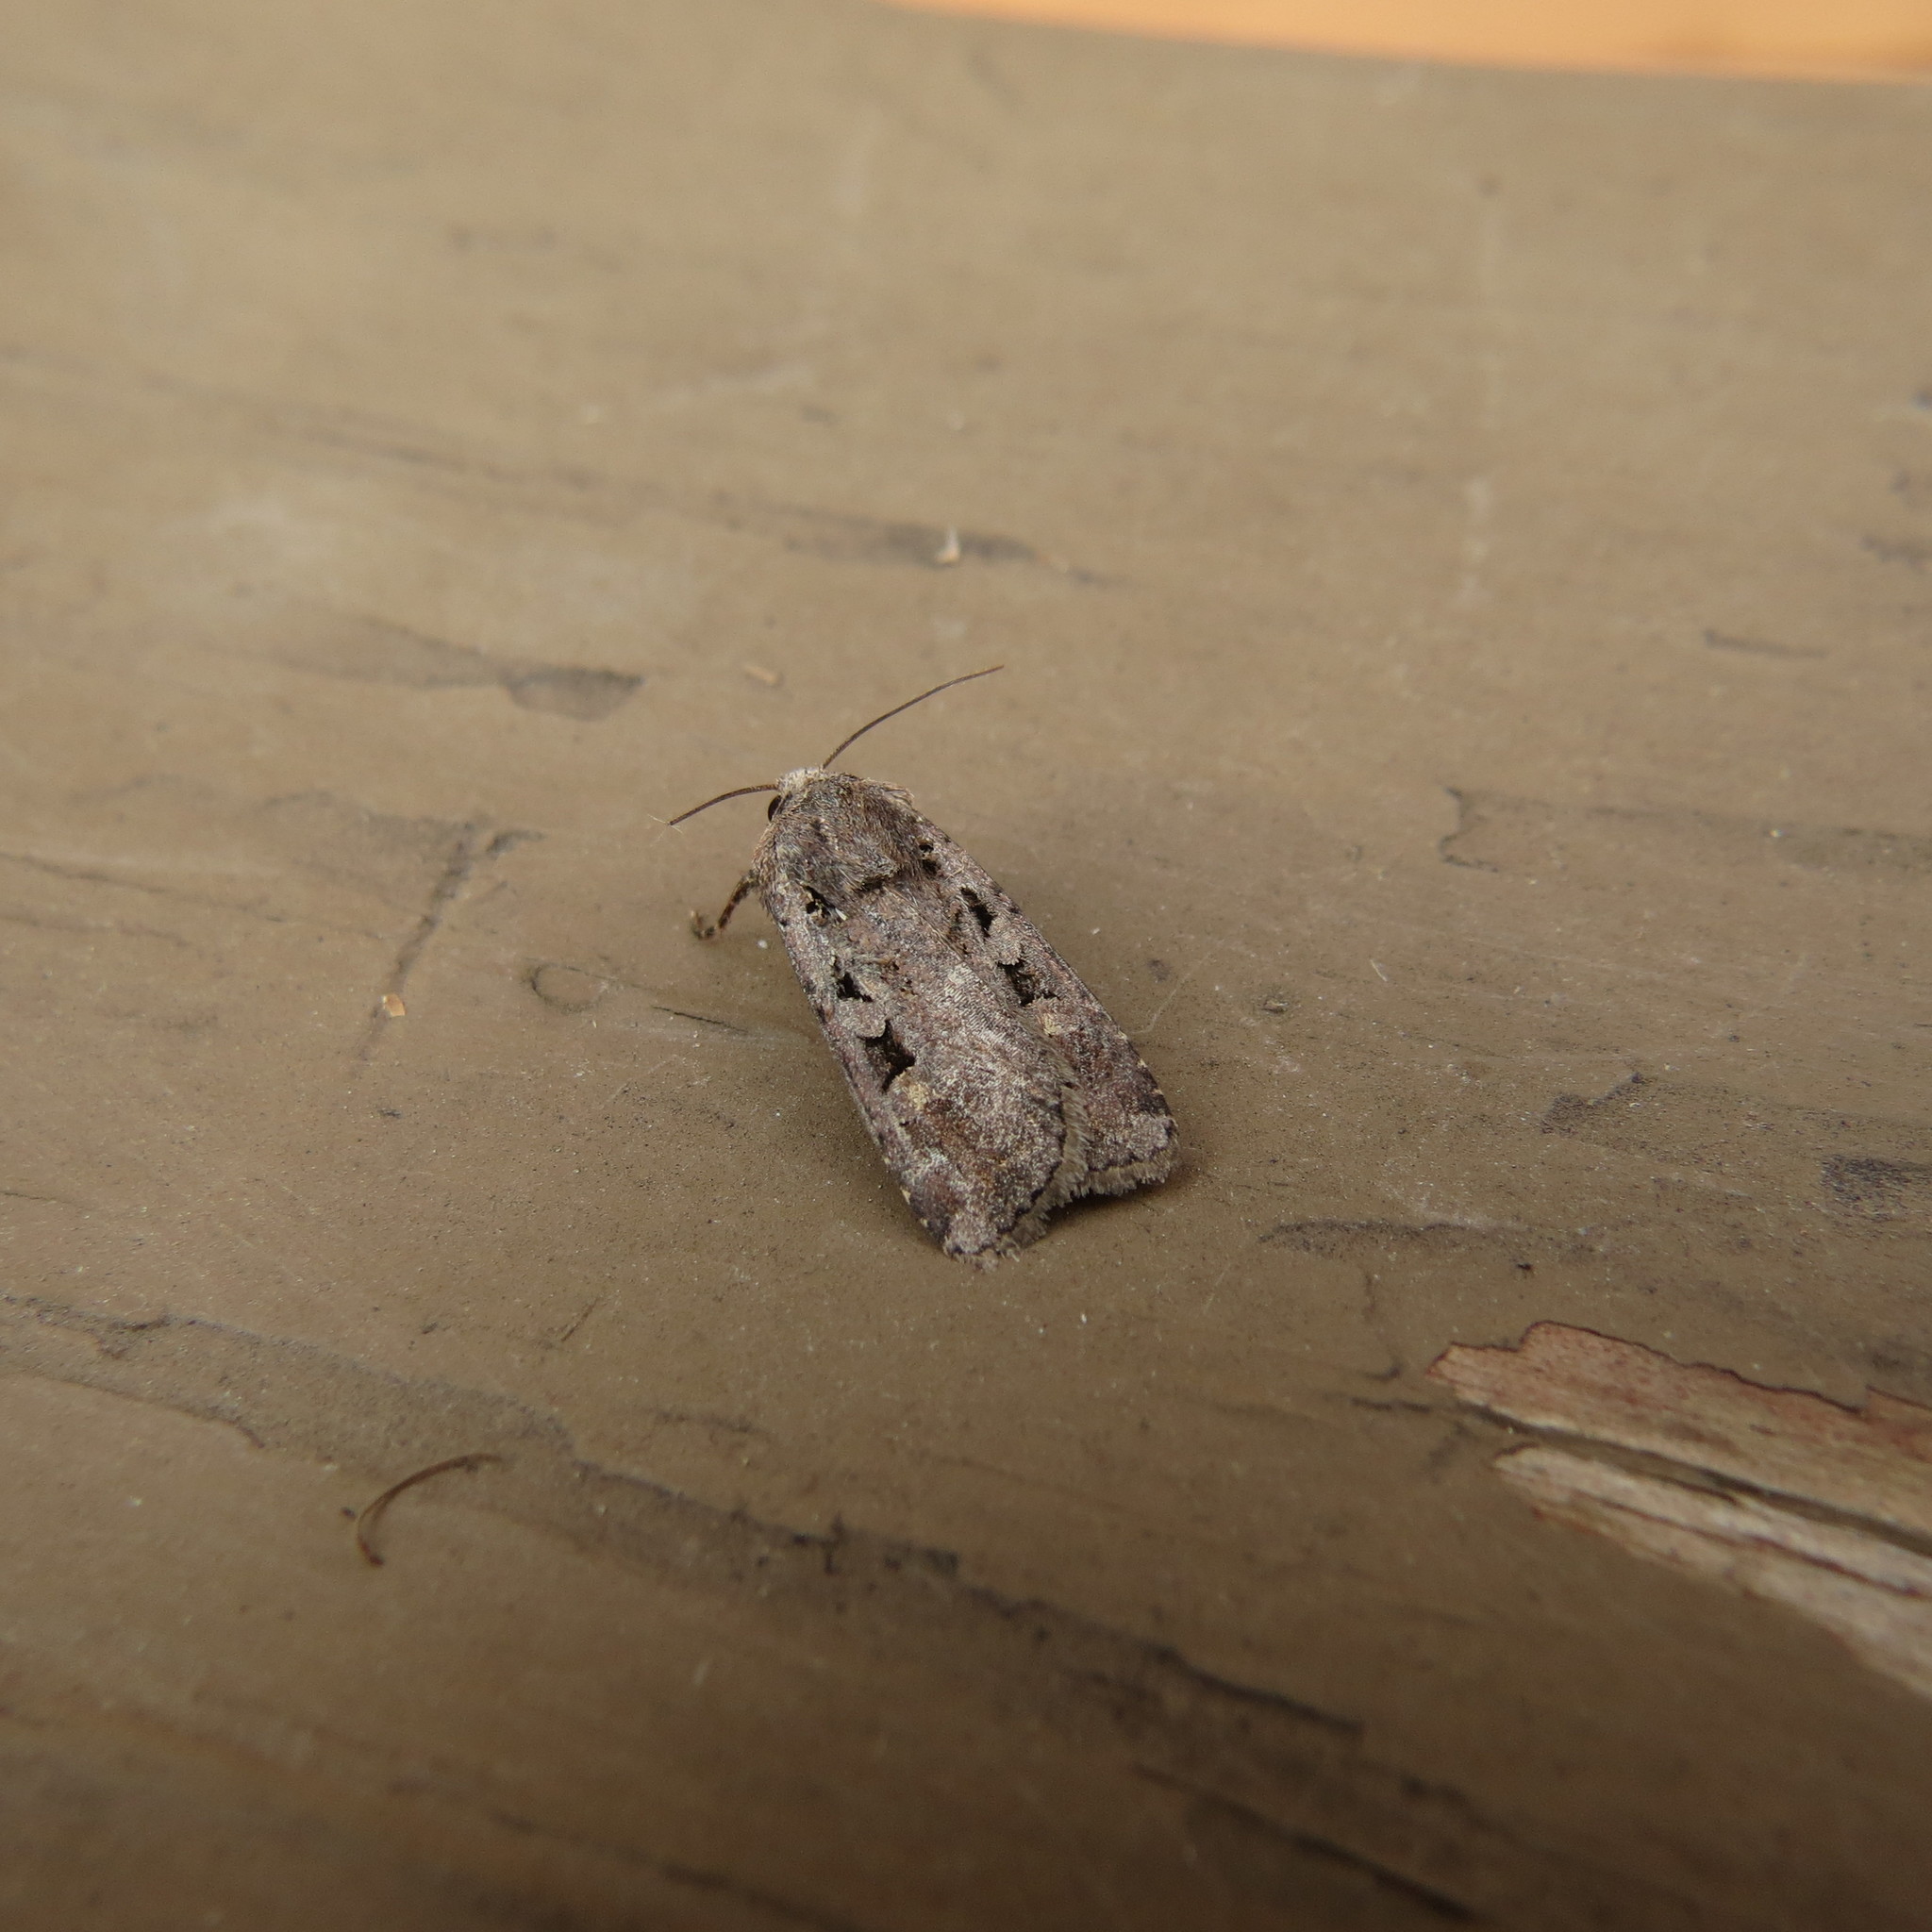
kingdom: Animalia
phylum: Arthropoda
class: Insecta
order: Lepidoptera
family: Noctuidae
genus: Euxoa
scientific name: Euxoa tessellata
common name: Striped cutworm
